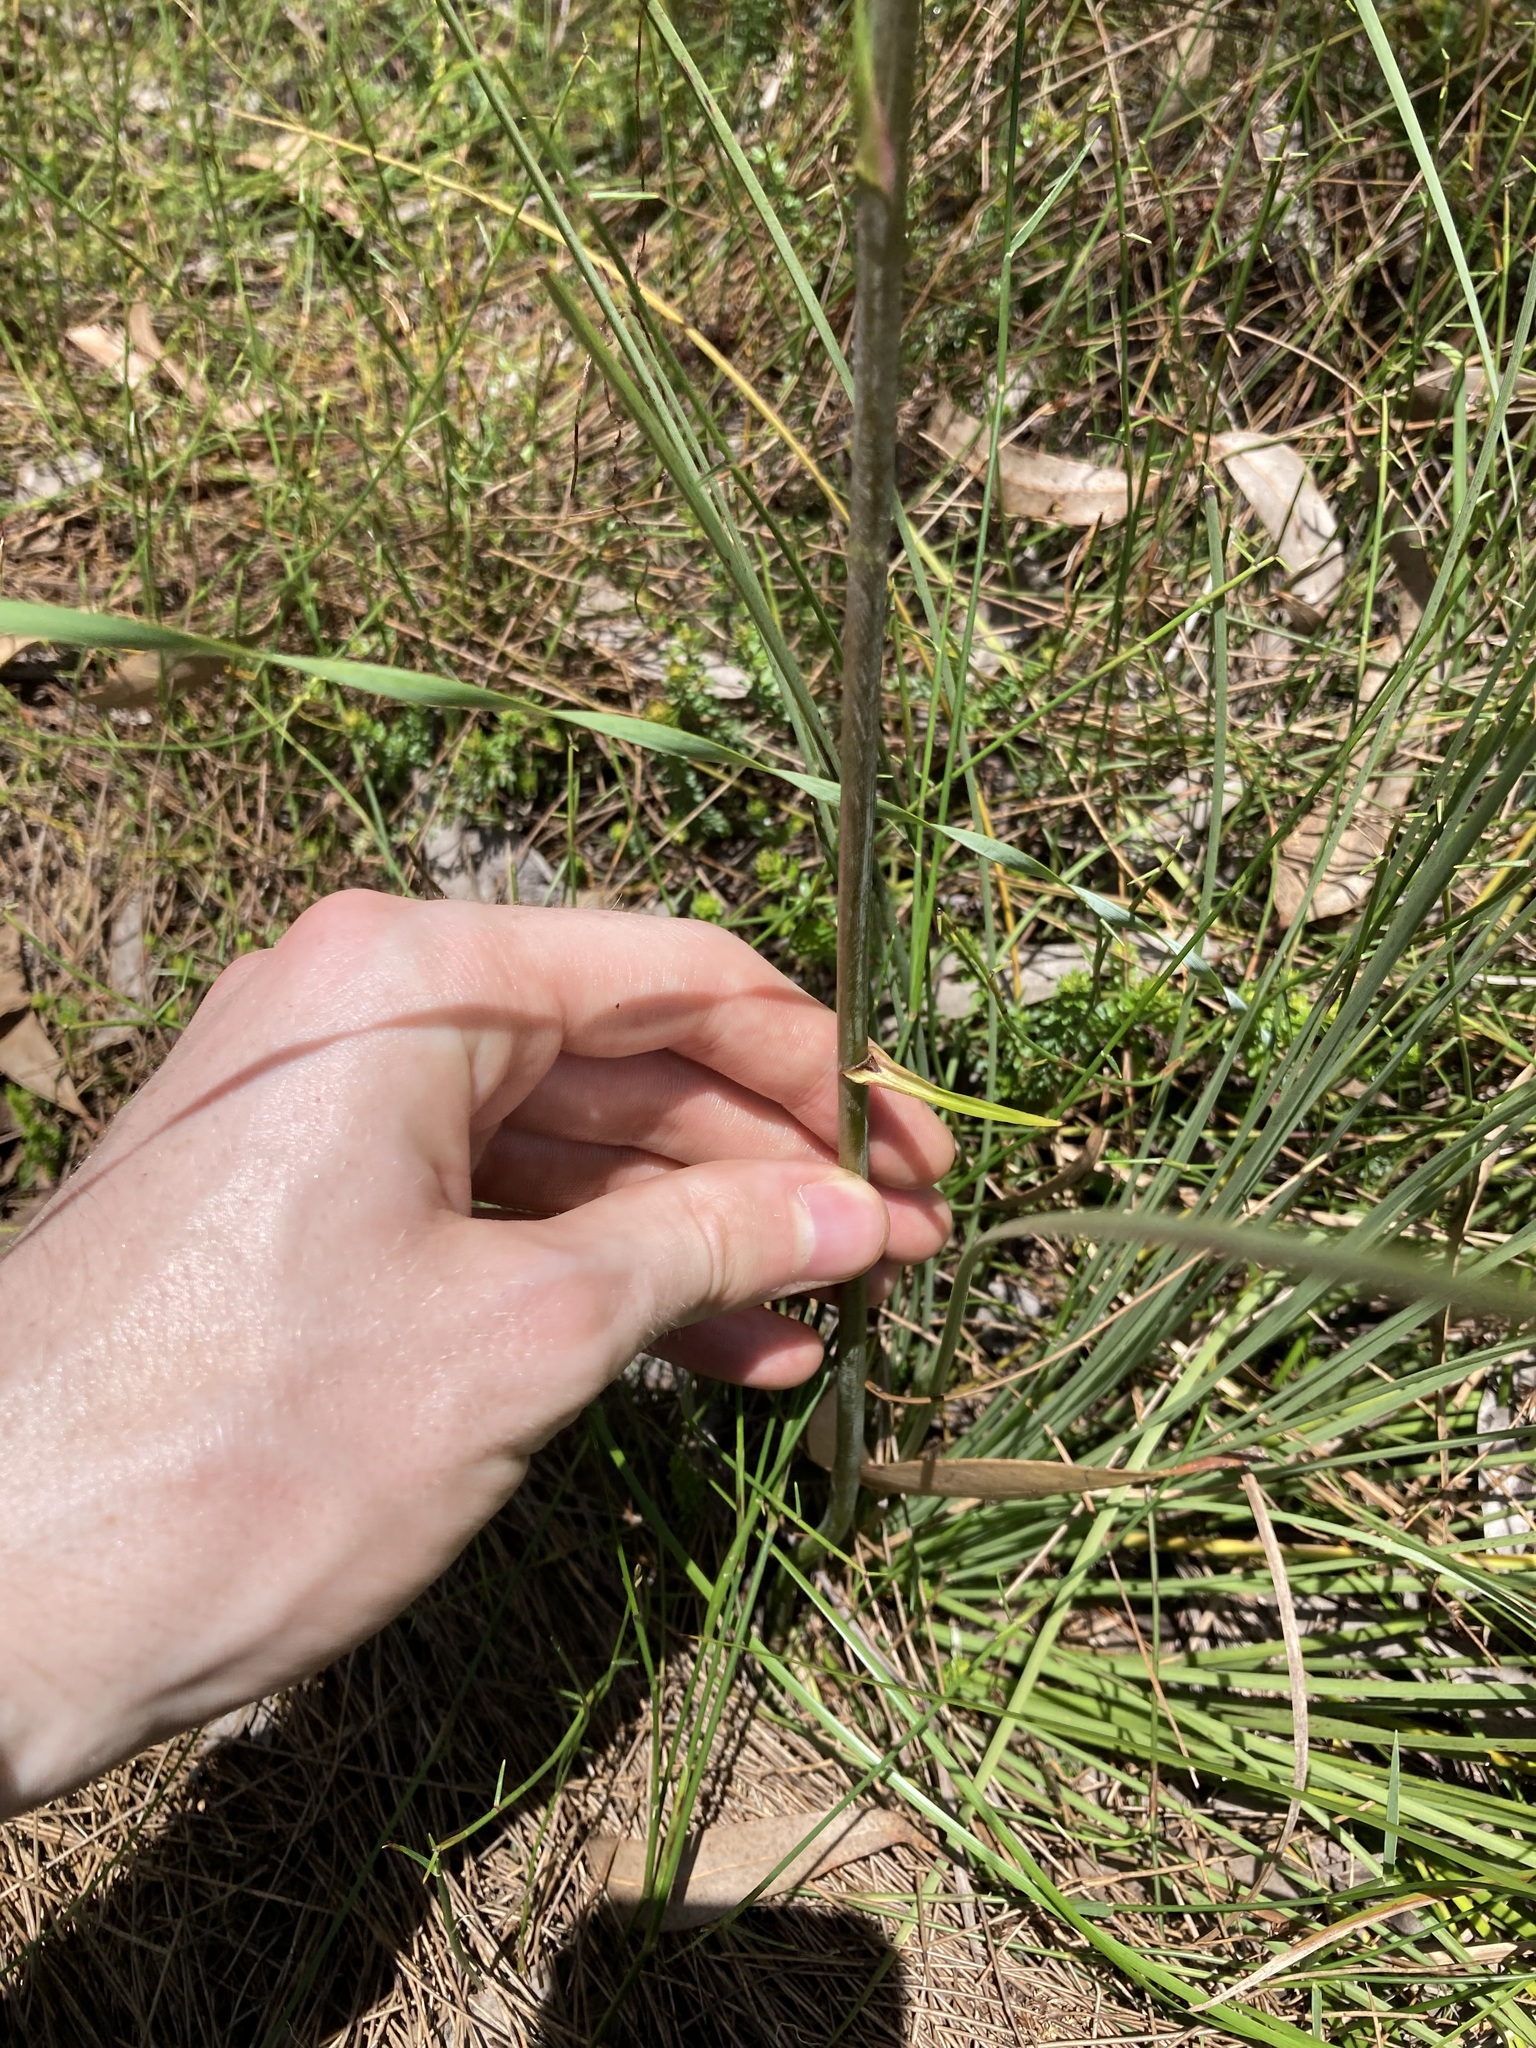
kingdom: Plantae
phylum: Tracheophyta
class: Liliopsida
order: Asparagales
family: Blandfordiaceae
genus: Blandfordia
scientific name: Blandfordia grandiflora
